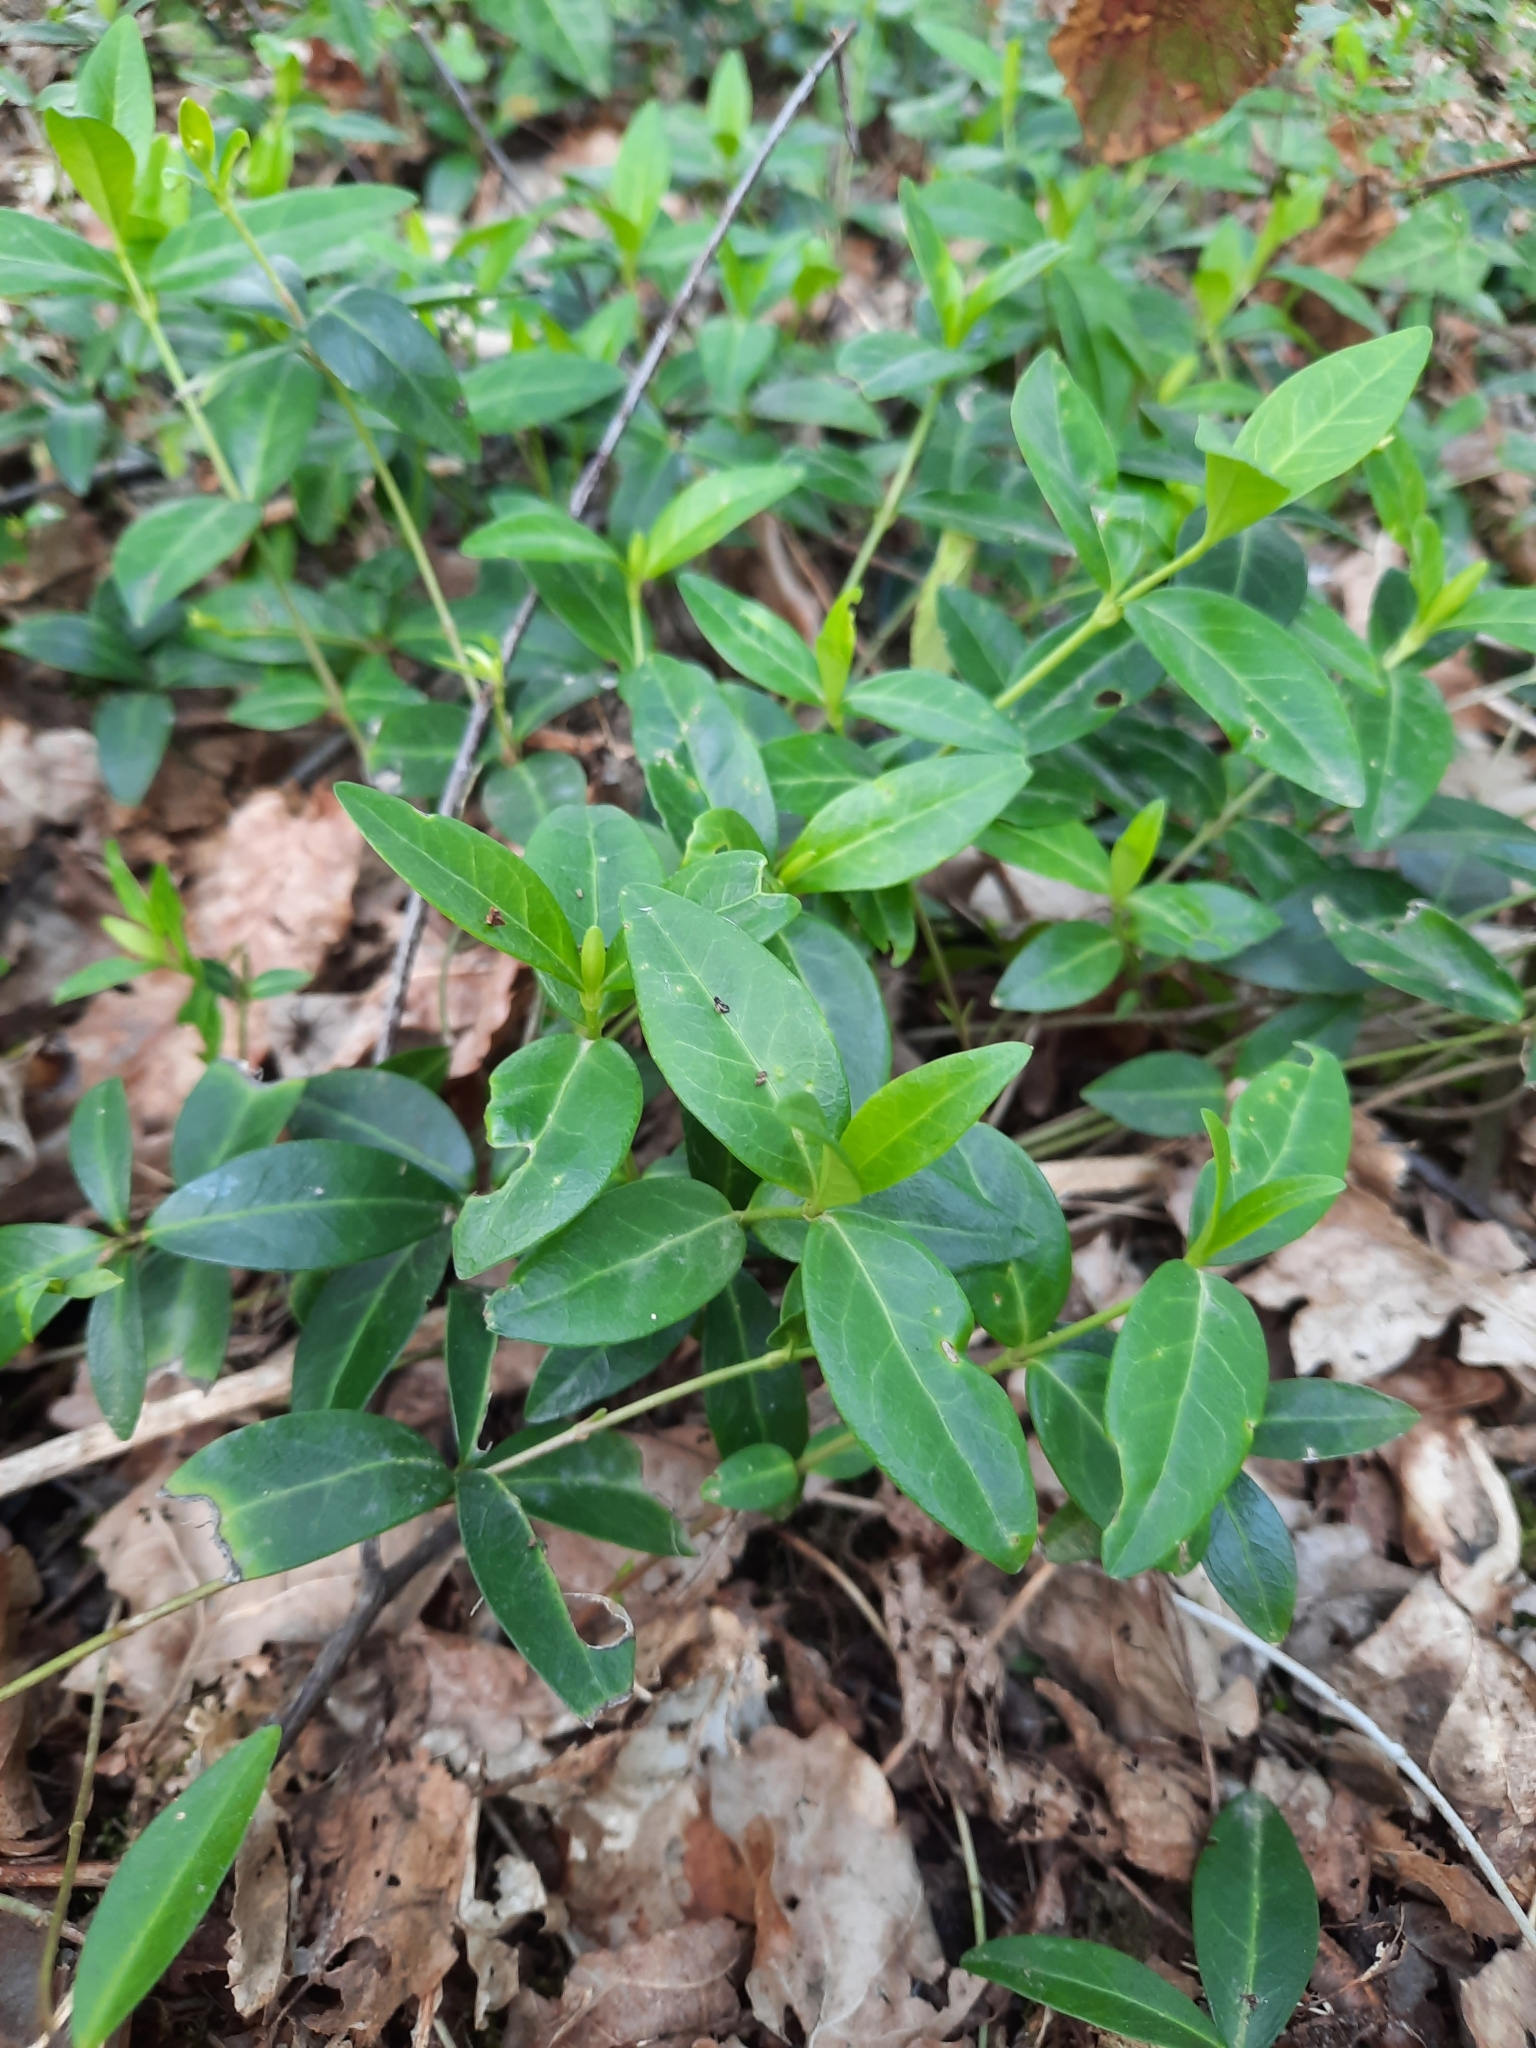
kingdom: Plantae
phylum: Tracheophyta
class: Magnoliopsida
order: Gentianales
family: Apocynaceae
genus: Vinca
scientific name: Vinca minor
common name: Lesser periwinkle
